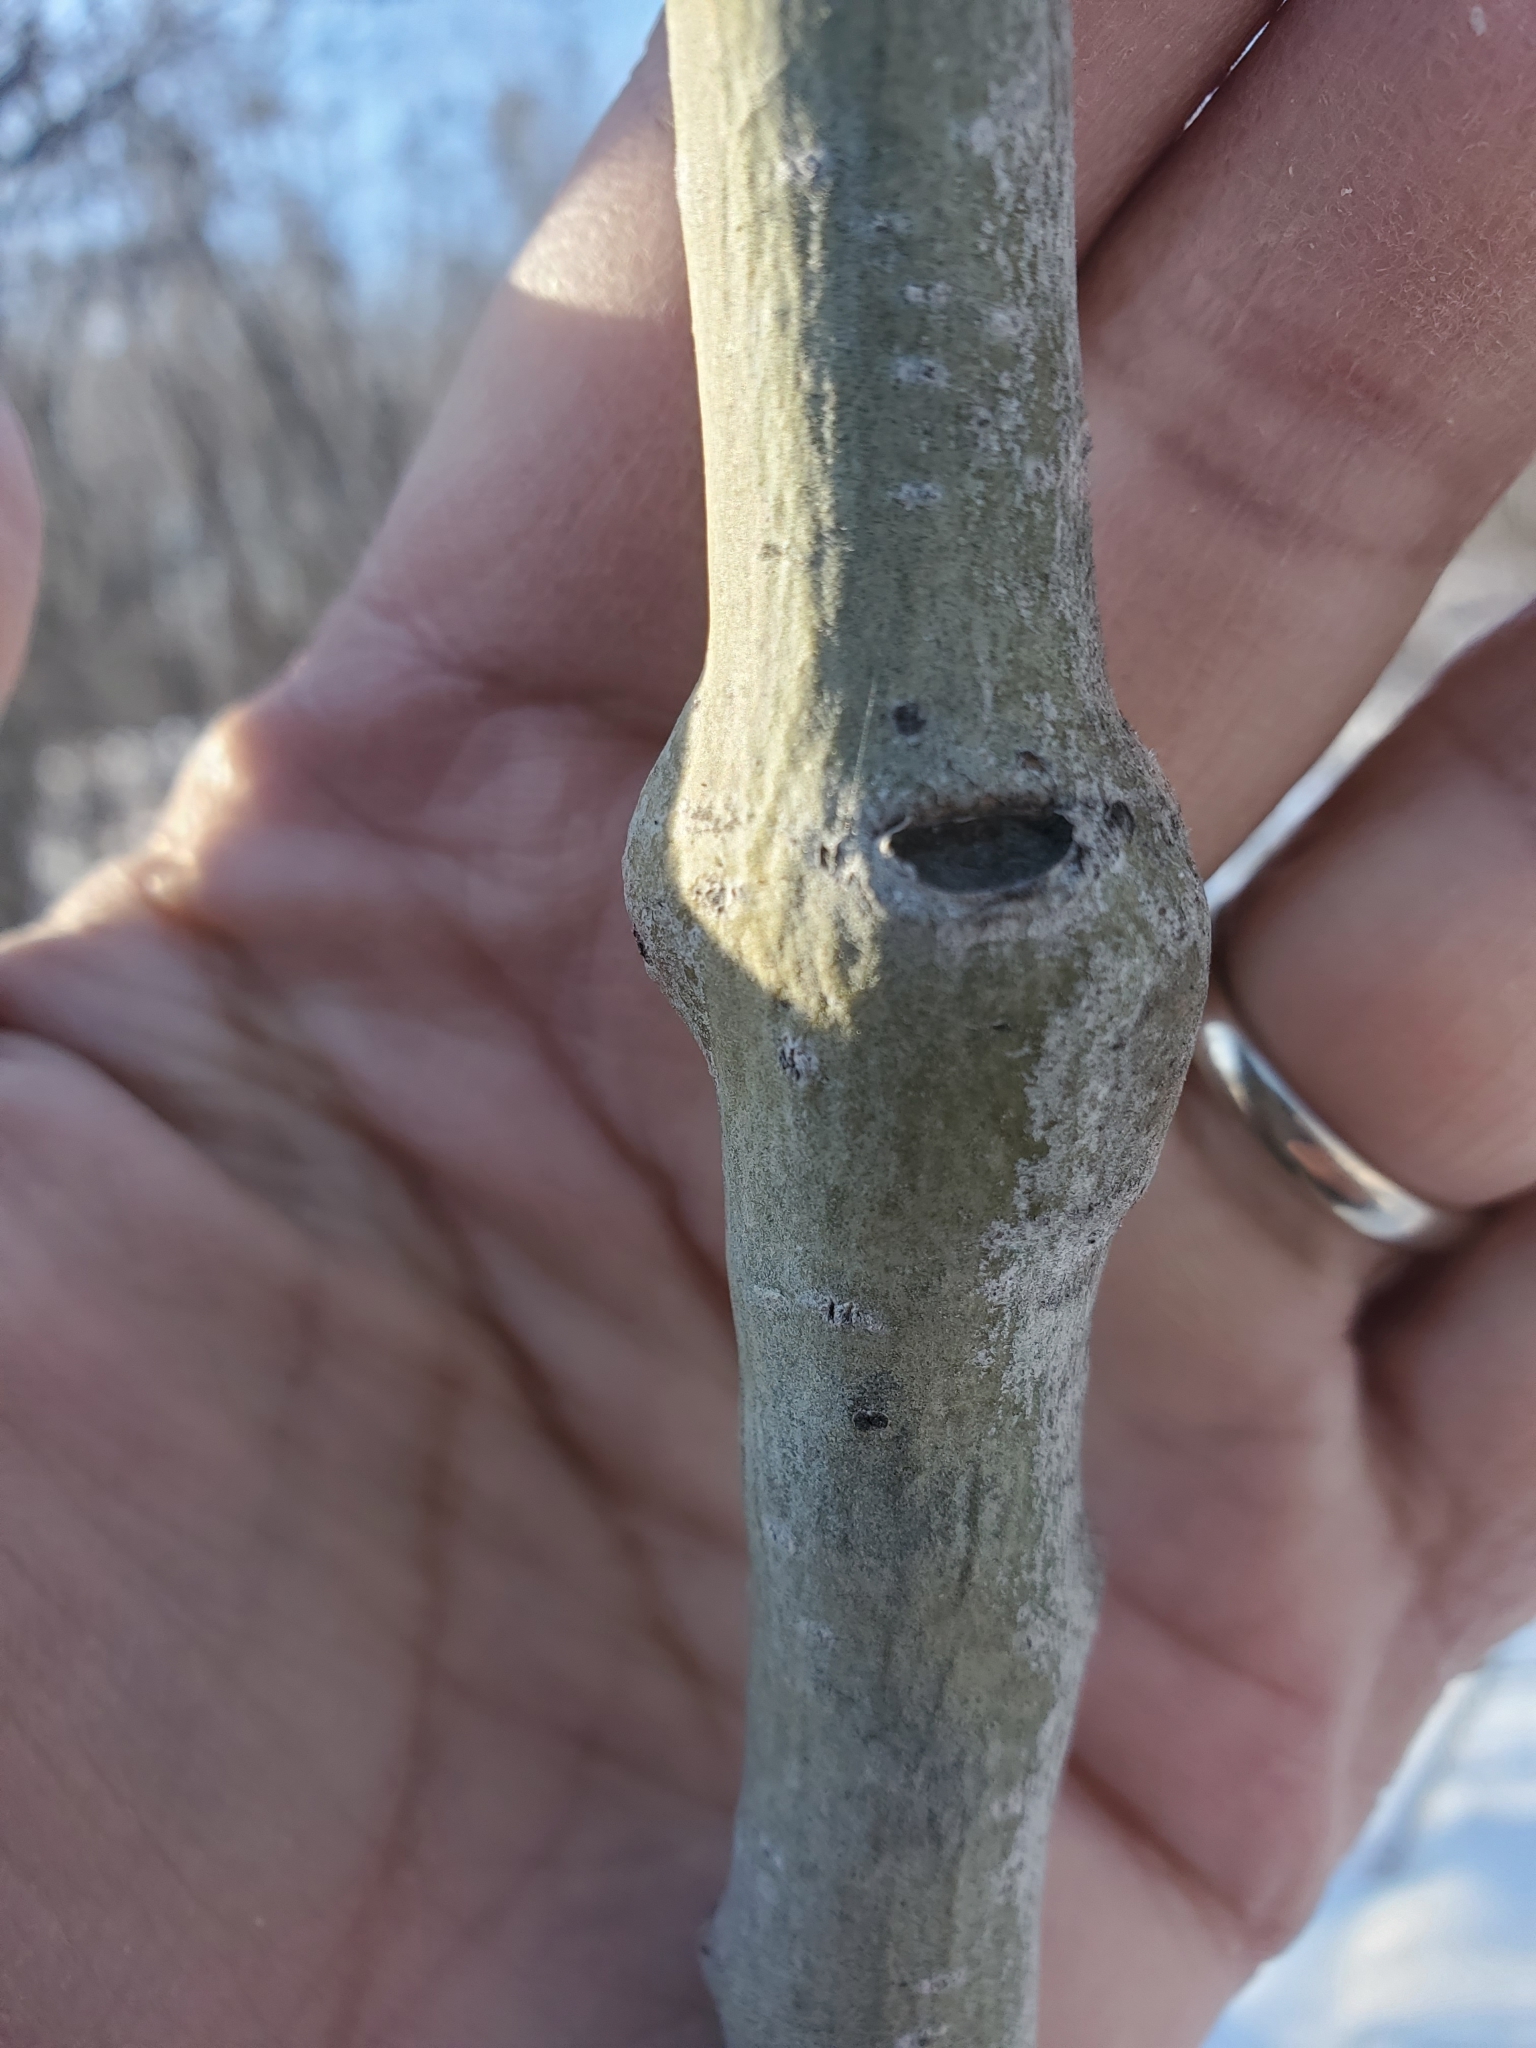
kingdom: Animalia
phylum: Arthropoda
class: Insecta
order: Diptera
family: Agromyzidae
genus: Euhexomyza
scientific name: Euhexomyza schineri
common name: Poplar twiggall fly
